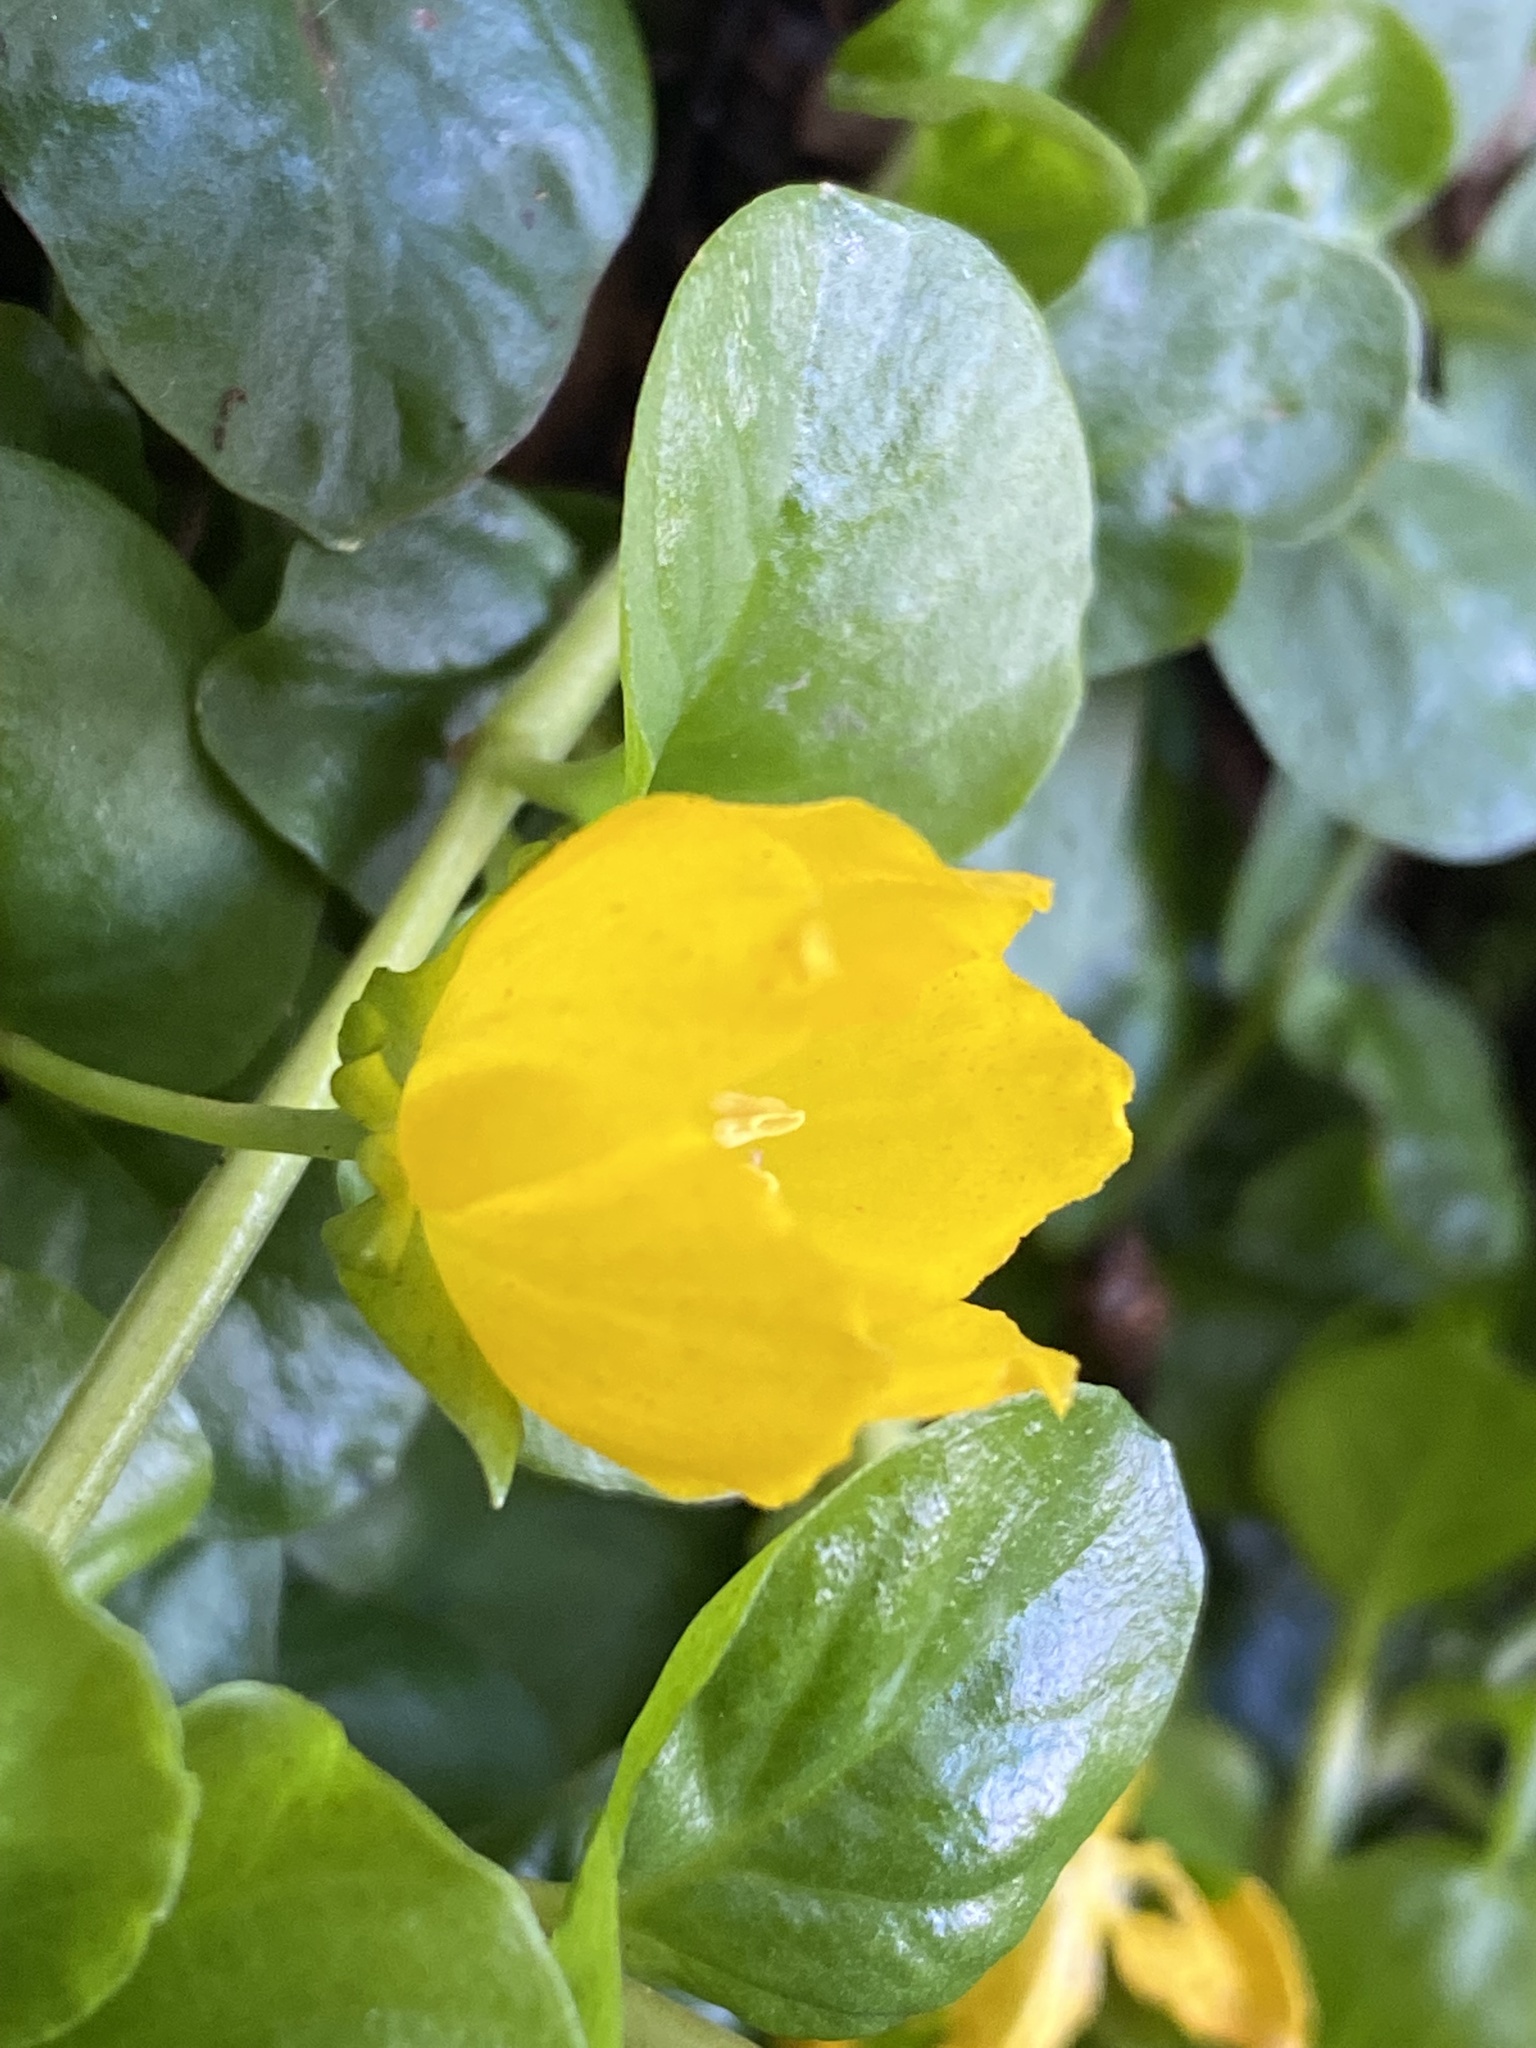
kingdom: Plantae
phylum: Tracheophyta
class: Magnoliopsida
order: Ericales
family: Primulaceae
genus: Lysimachia
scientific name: Lysimachia nummularia
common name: Moneywort
